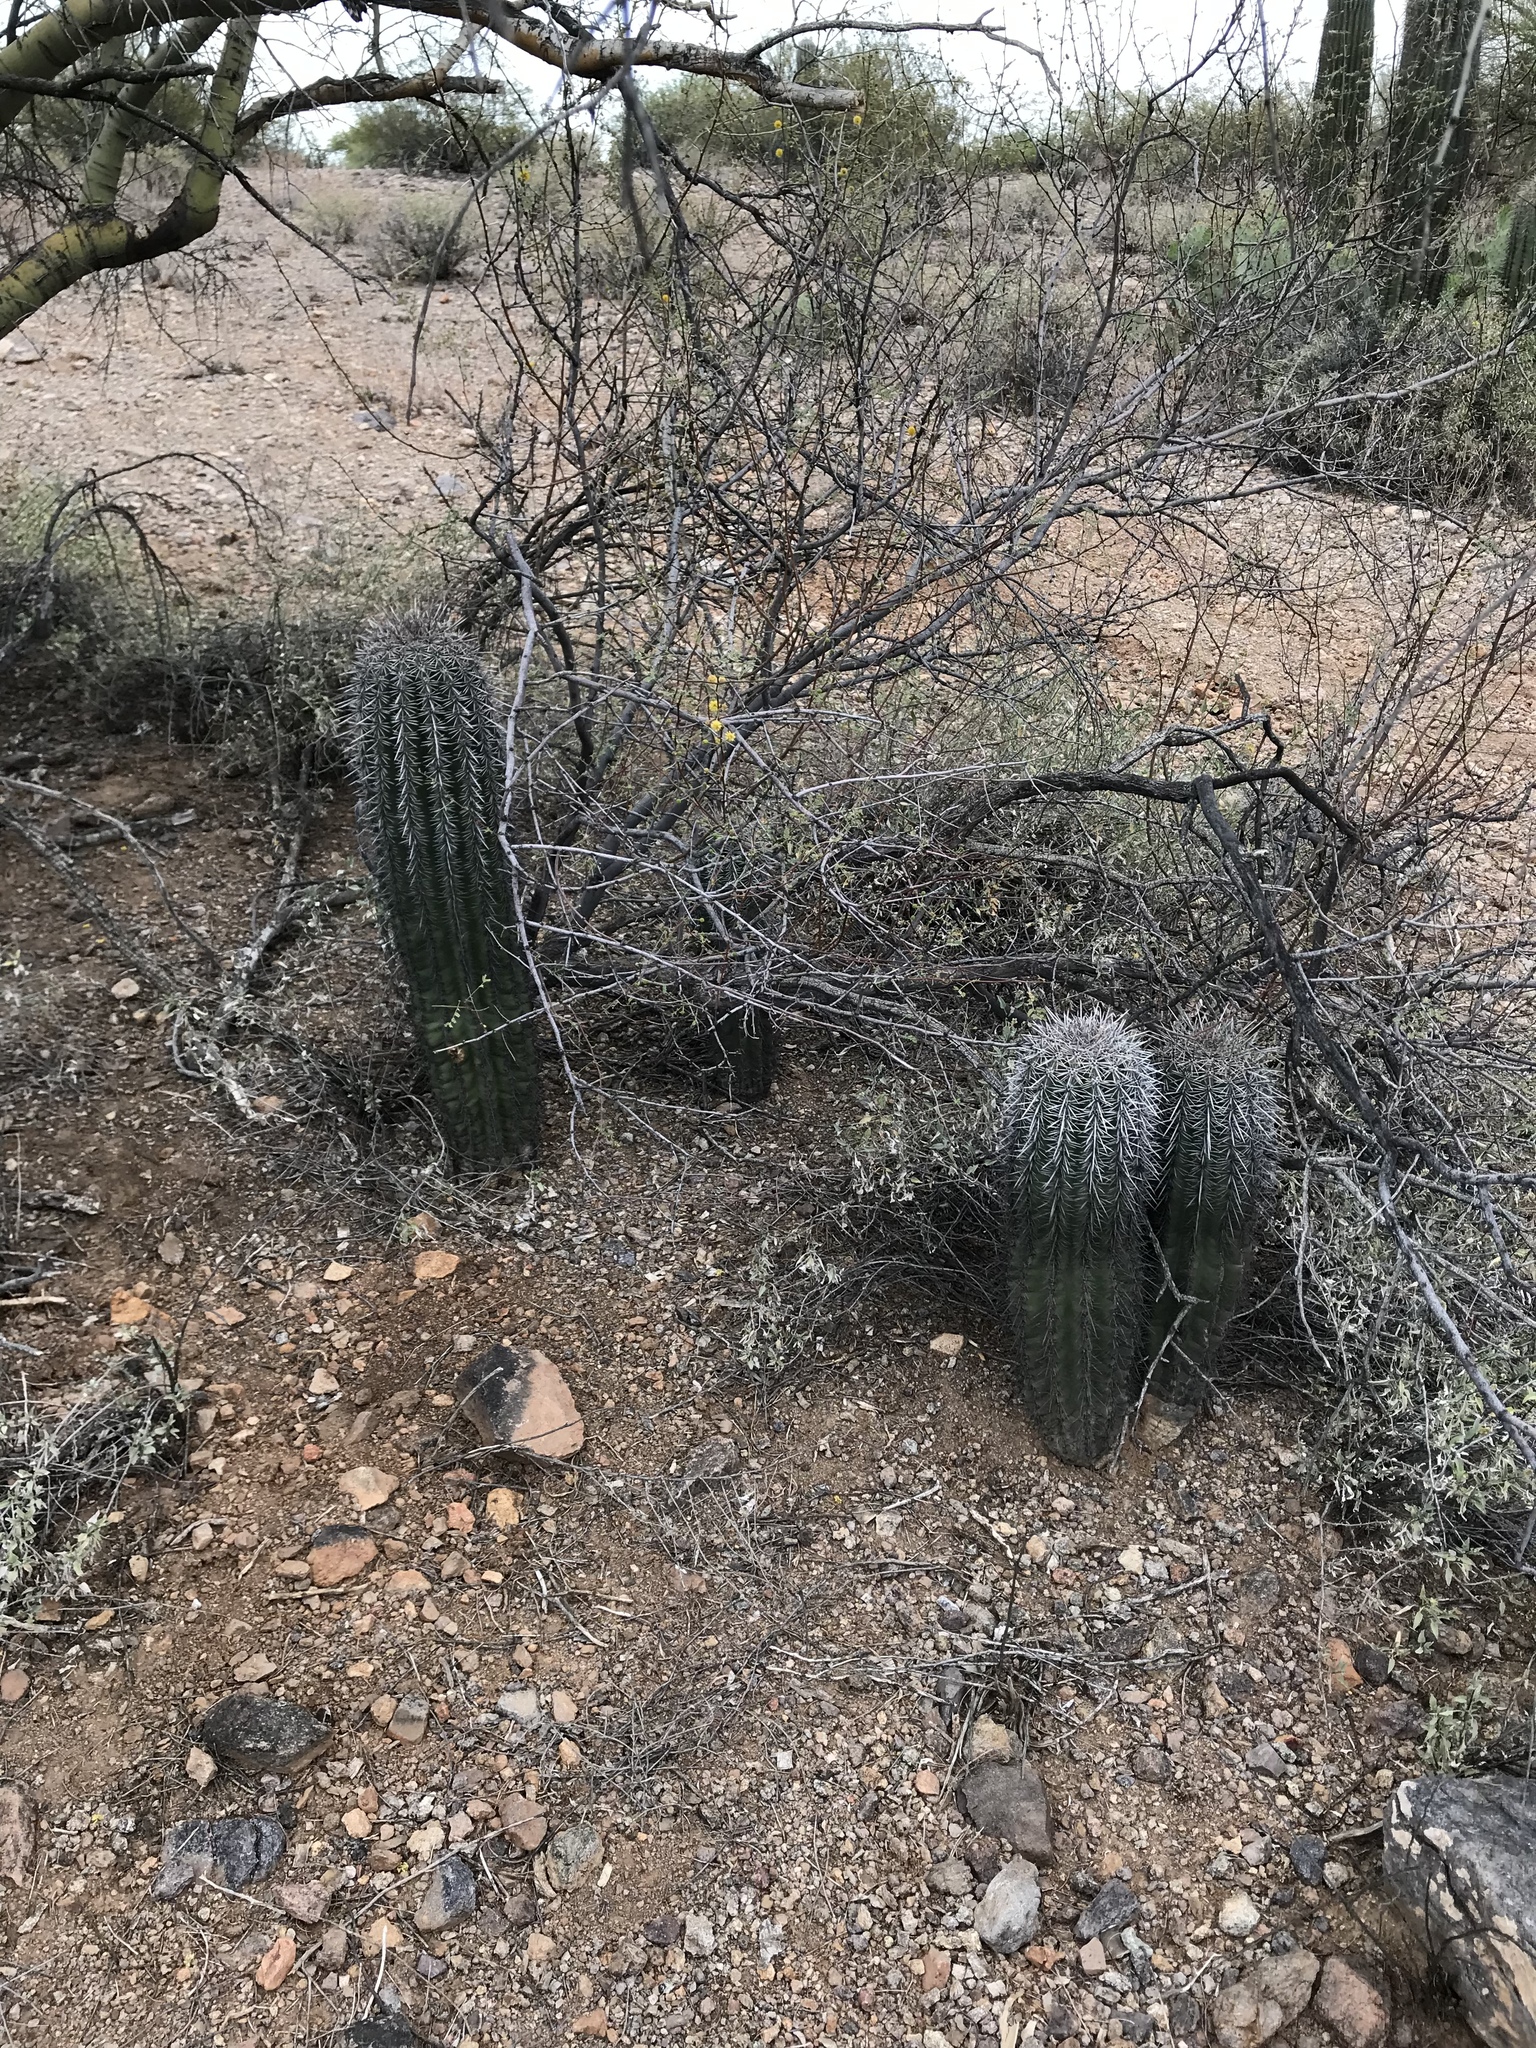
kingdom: Plantae
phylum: Tracheophyta
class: Magnoliopsida
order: Caryophyllales
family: Cactaceae
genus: Carnegiea
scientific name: Carnegiea gigantea
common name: Saguaro
